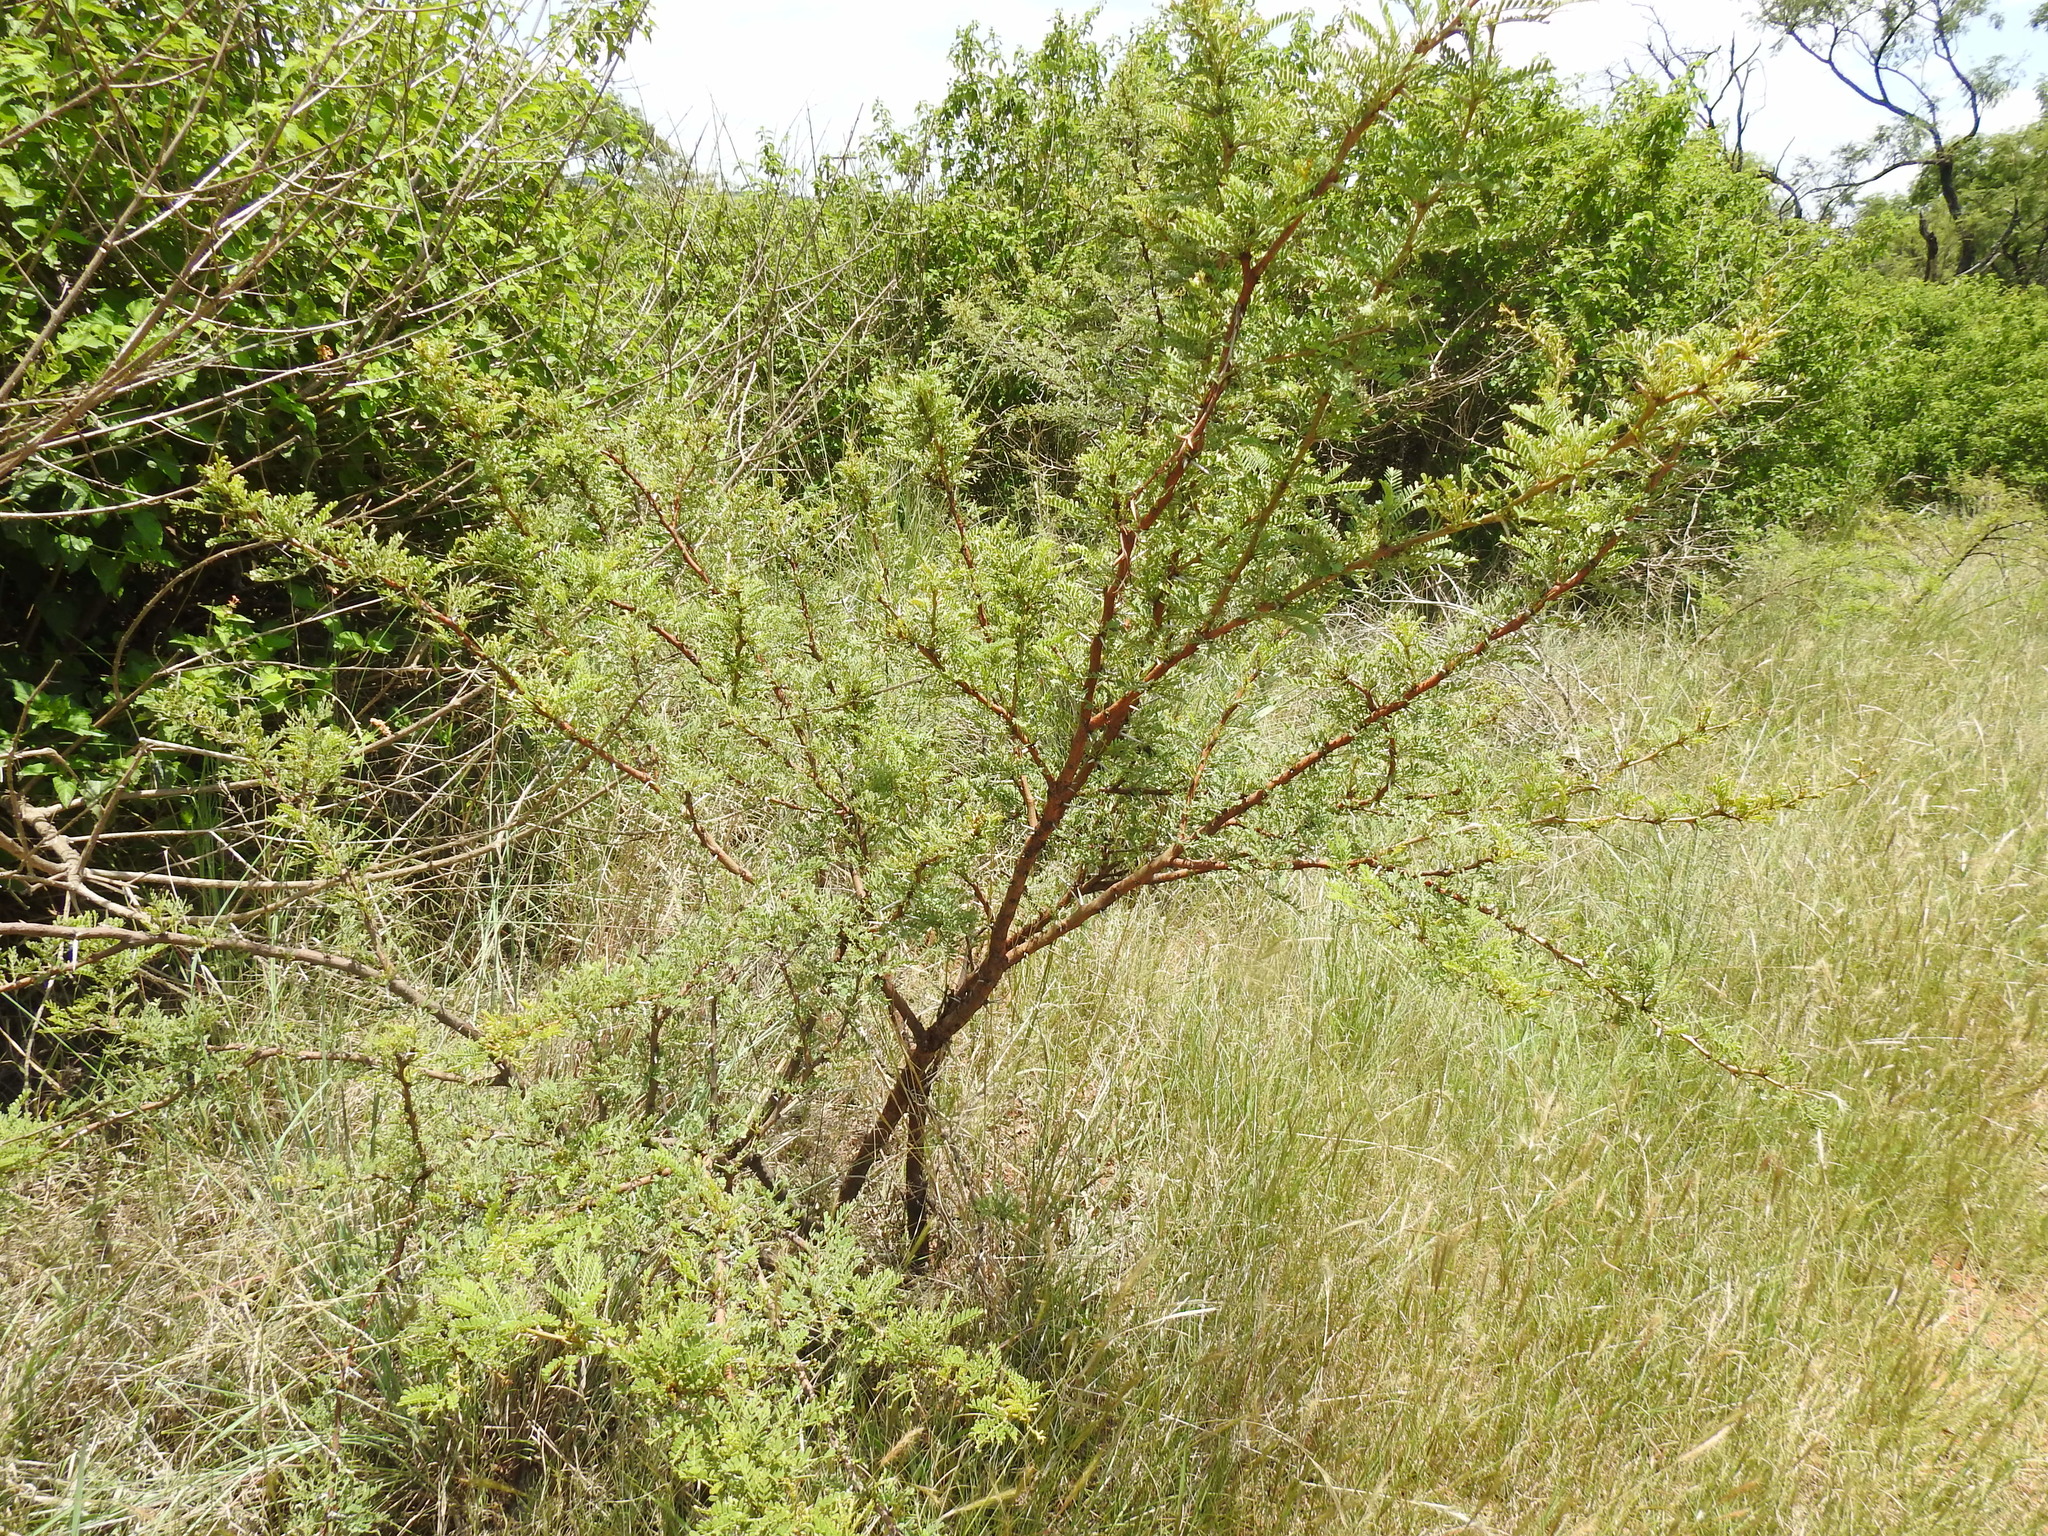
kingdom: Plantae
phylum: Tracheophyta
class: Magnoliopsida
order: Fabales
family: Fabaceae
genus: Vachellia
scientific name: Vachellia karroo
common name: Sweet thorn
